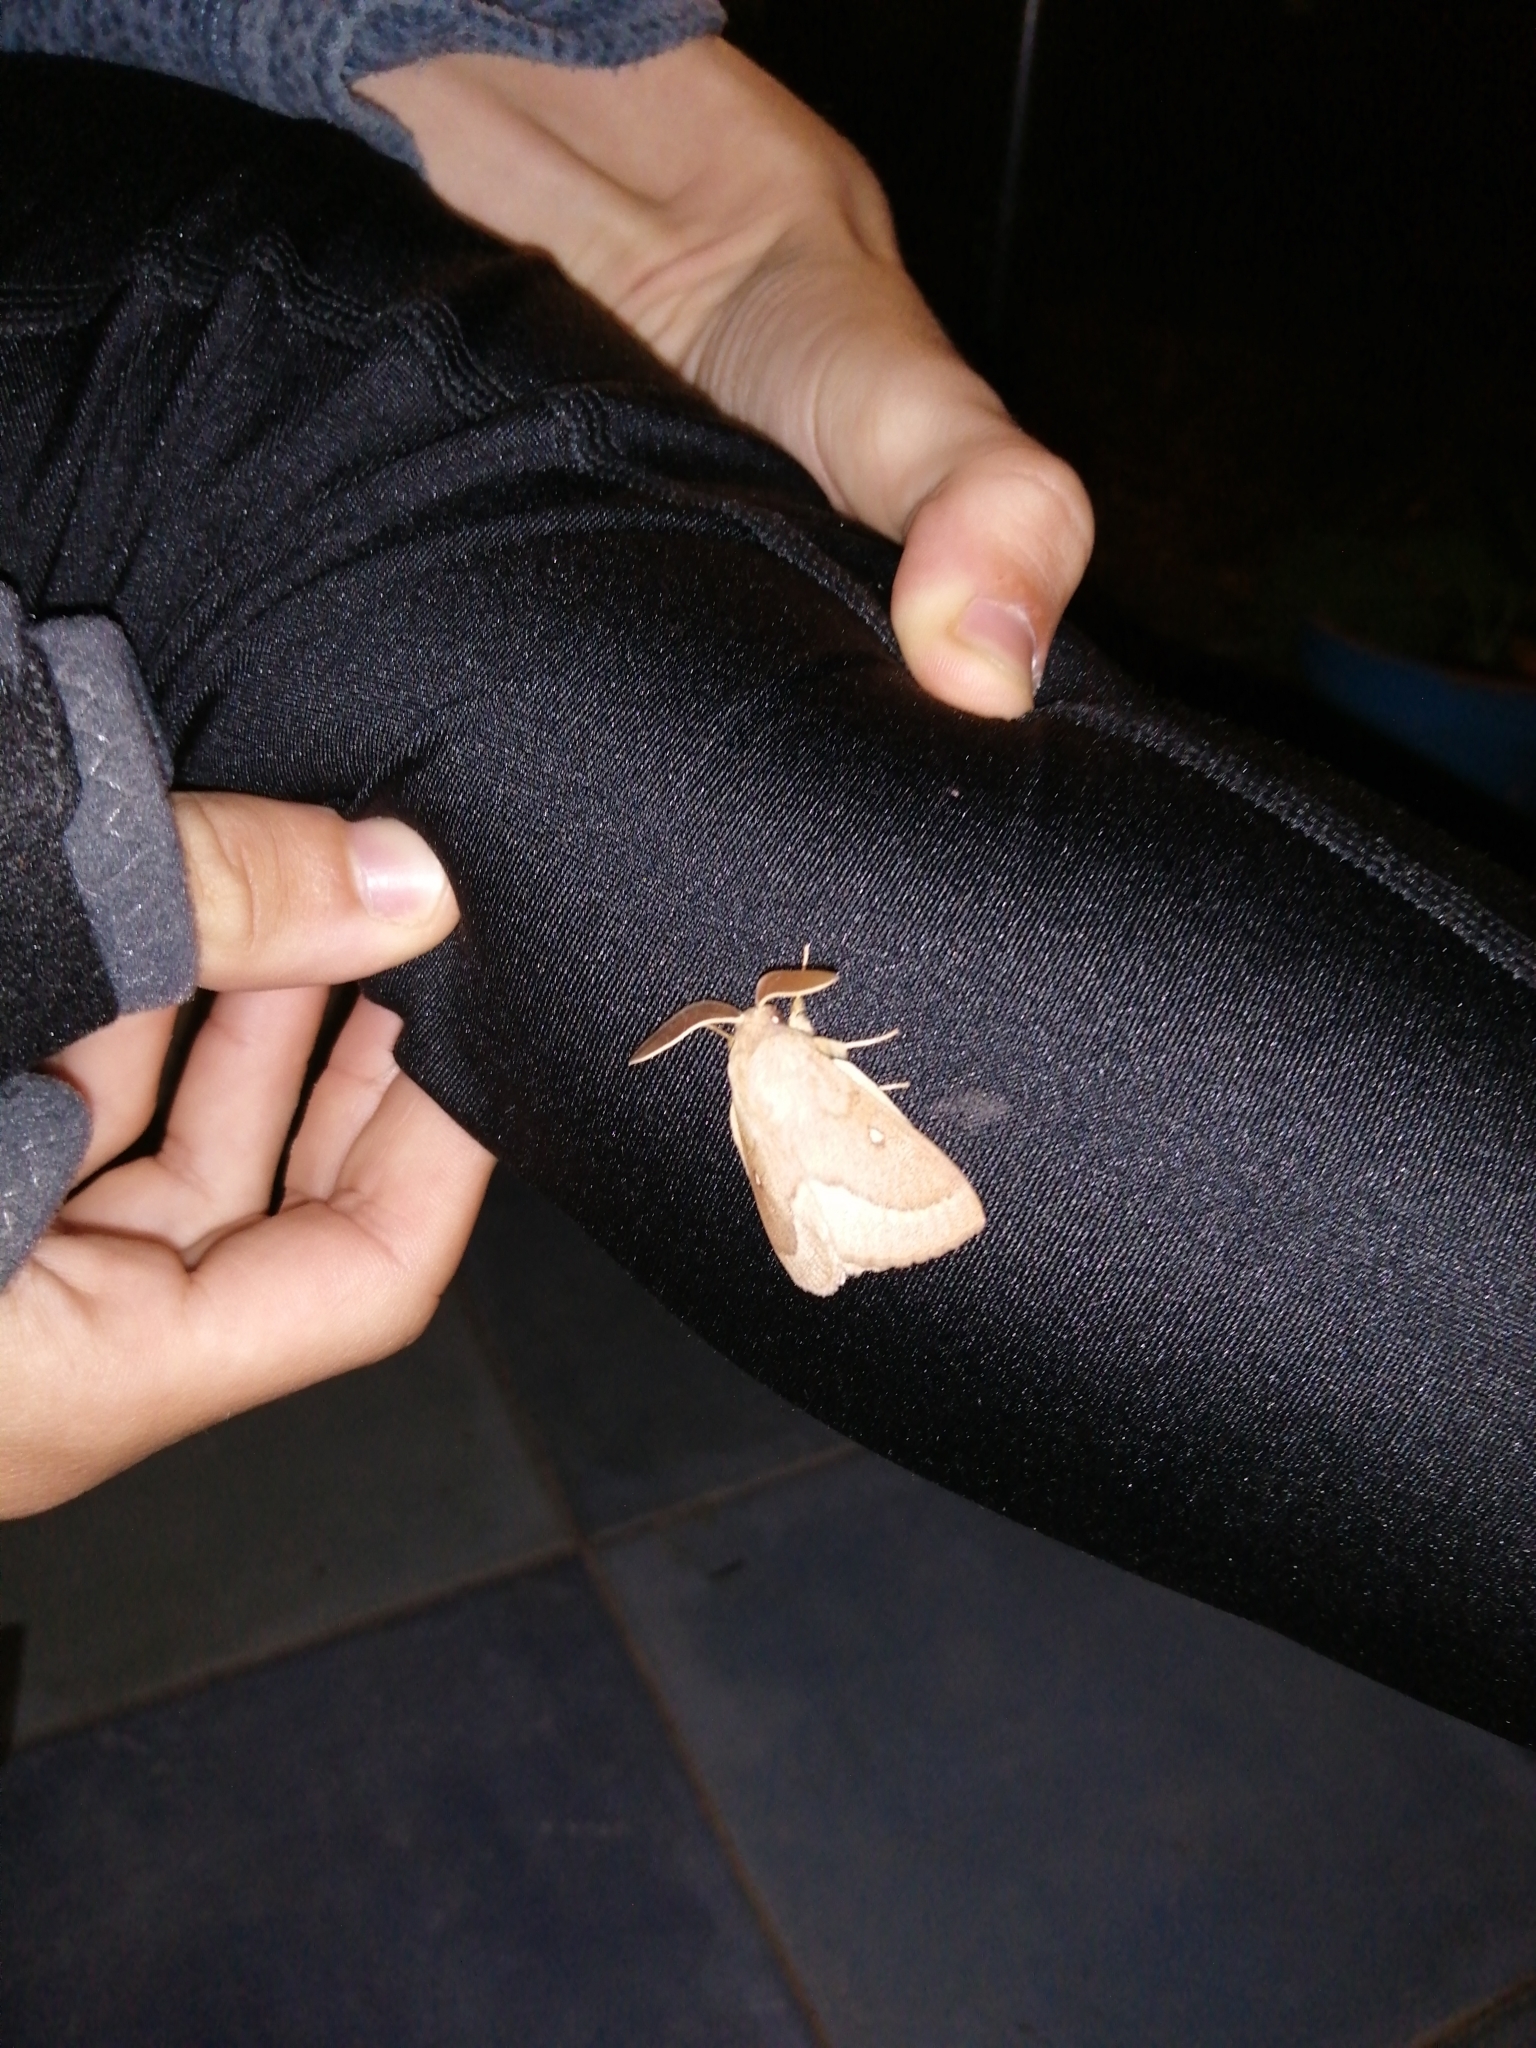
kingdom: Animalia
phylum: Arthropoda
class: Insecta
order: Lepidoptera
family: Lasiocampidae
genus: Lasiocampa
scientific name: Lasiocampa trifolii
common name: Grass eggar
